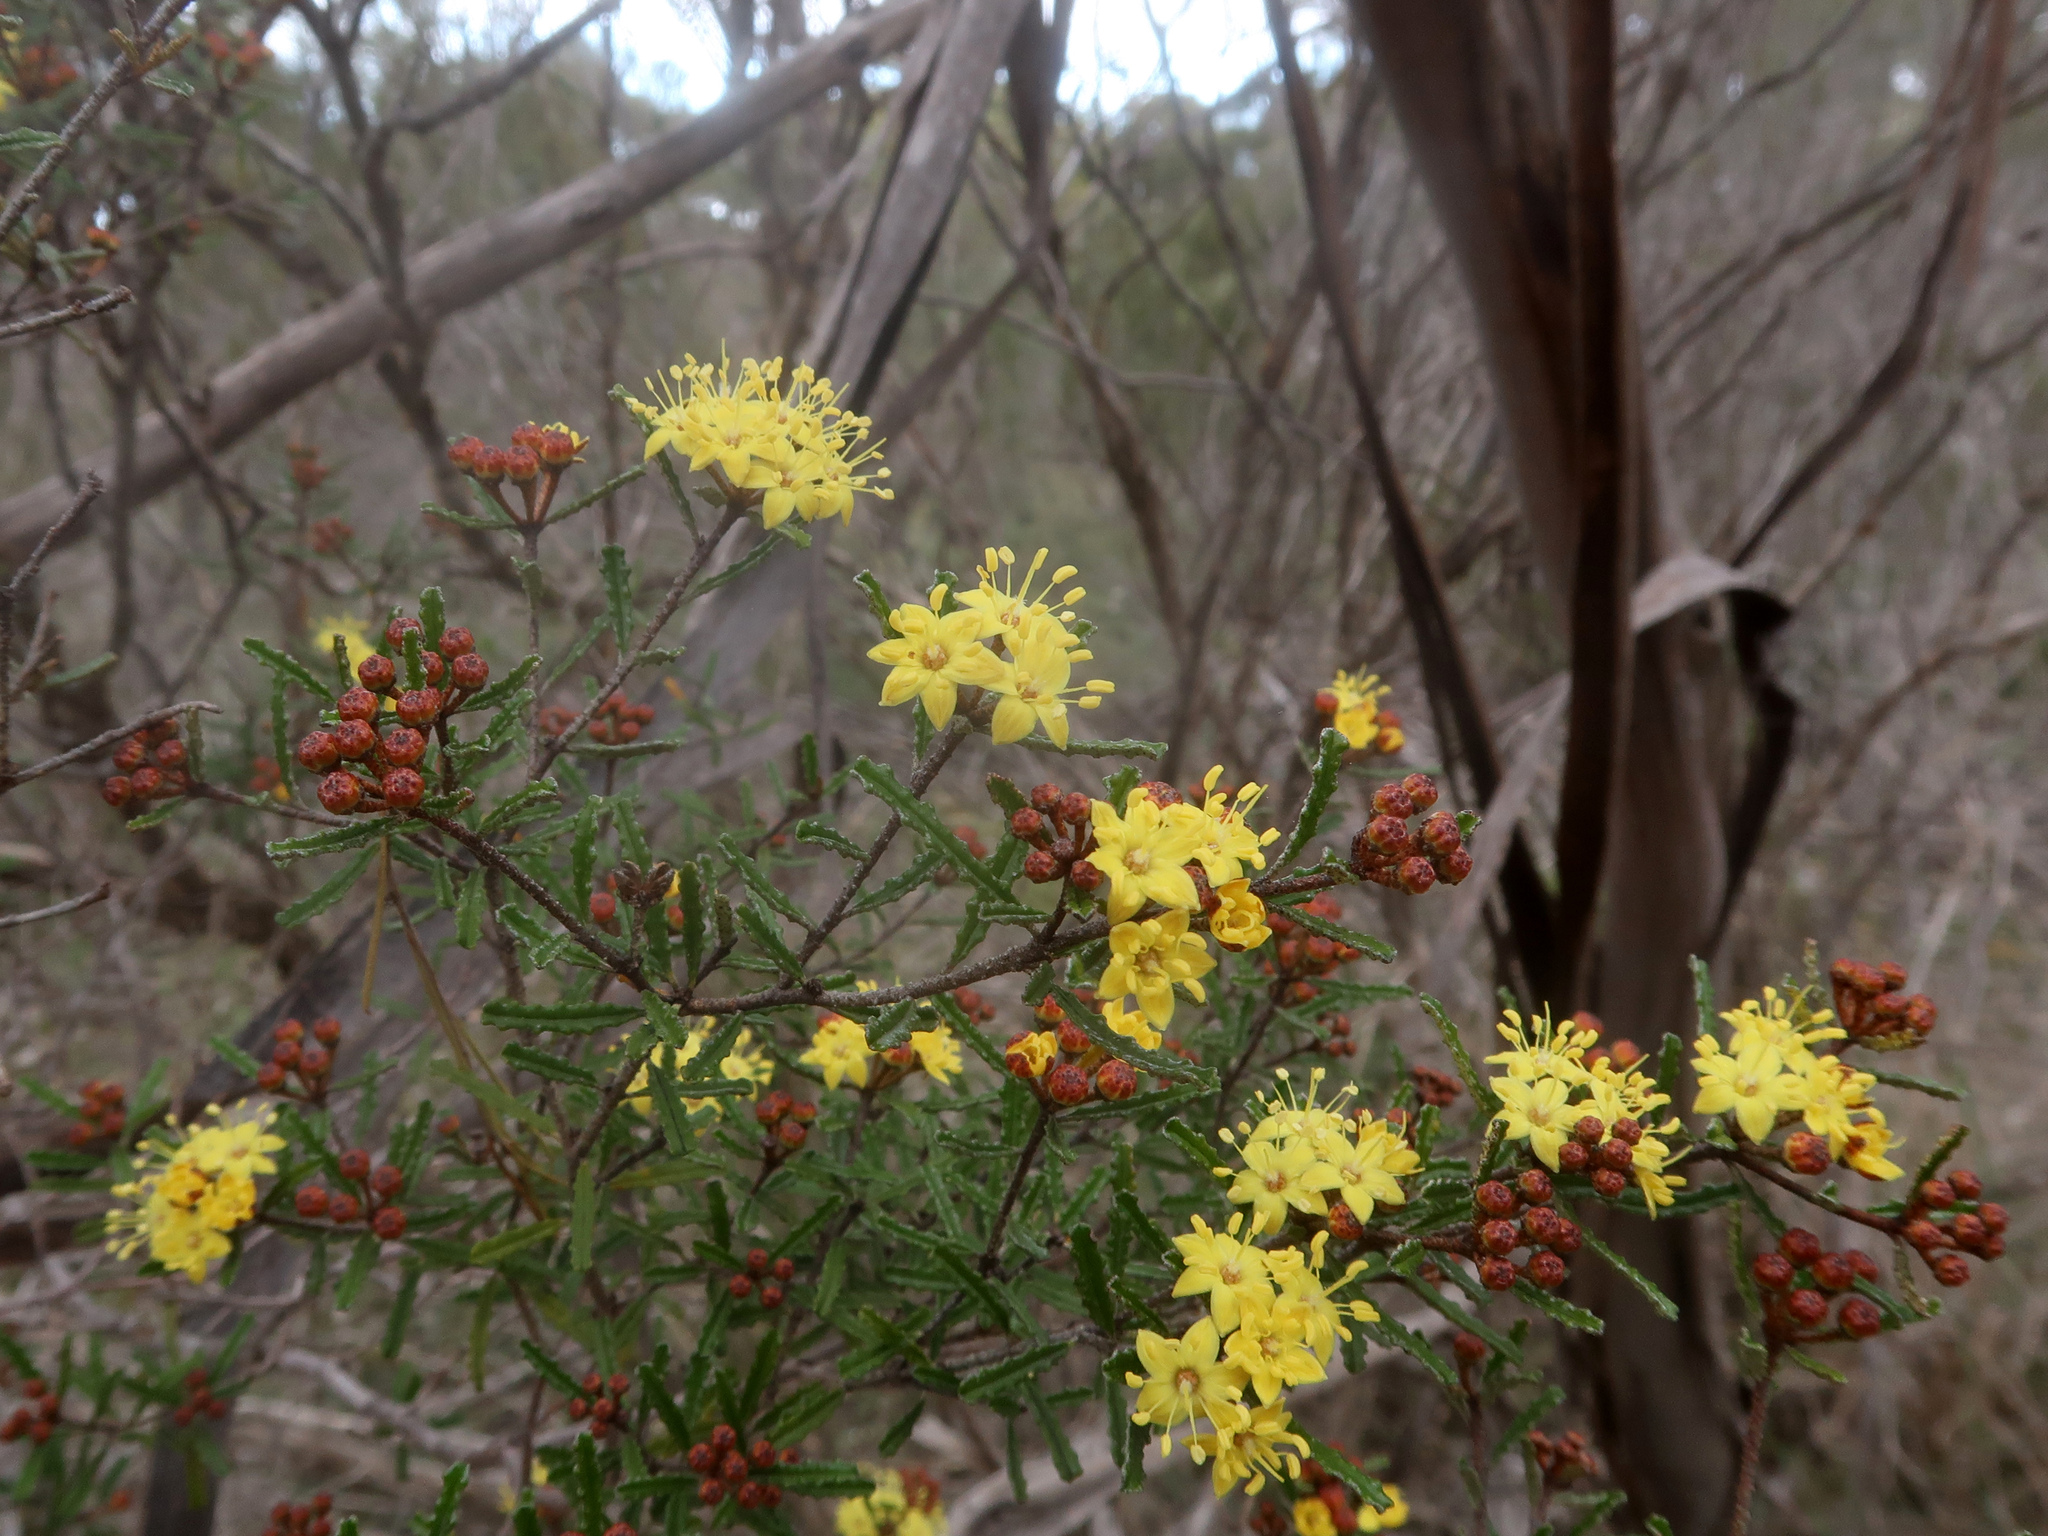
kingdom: Plantae
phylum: Tracheophyta
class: Magnoliopsida
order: Sapindales
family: Rutaceae
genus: Phebalium
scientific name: Phebalium bullatum
